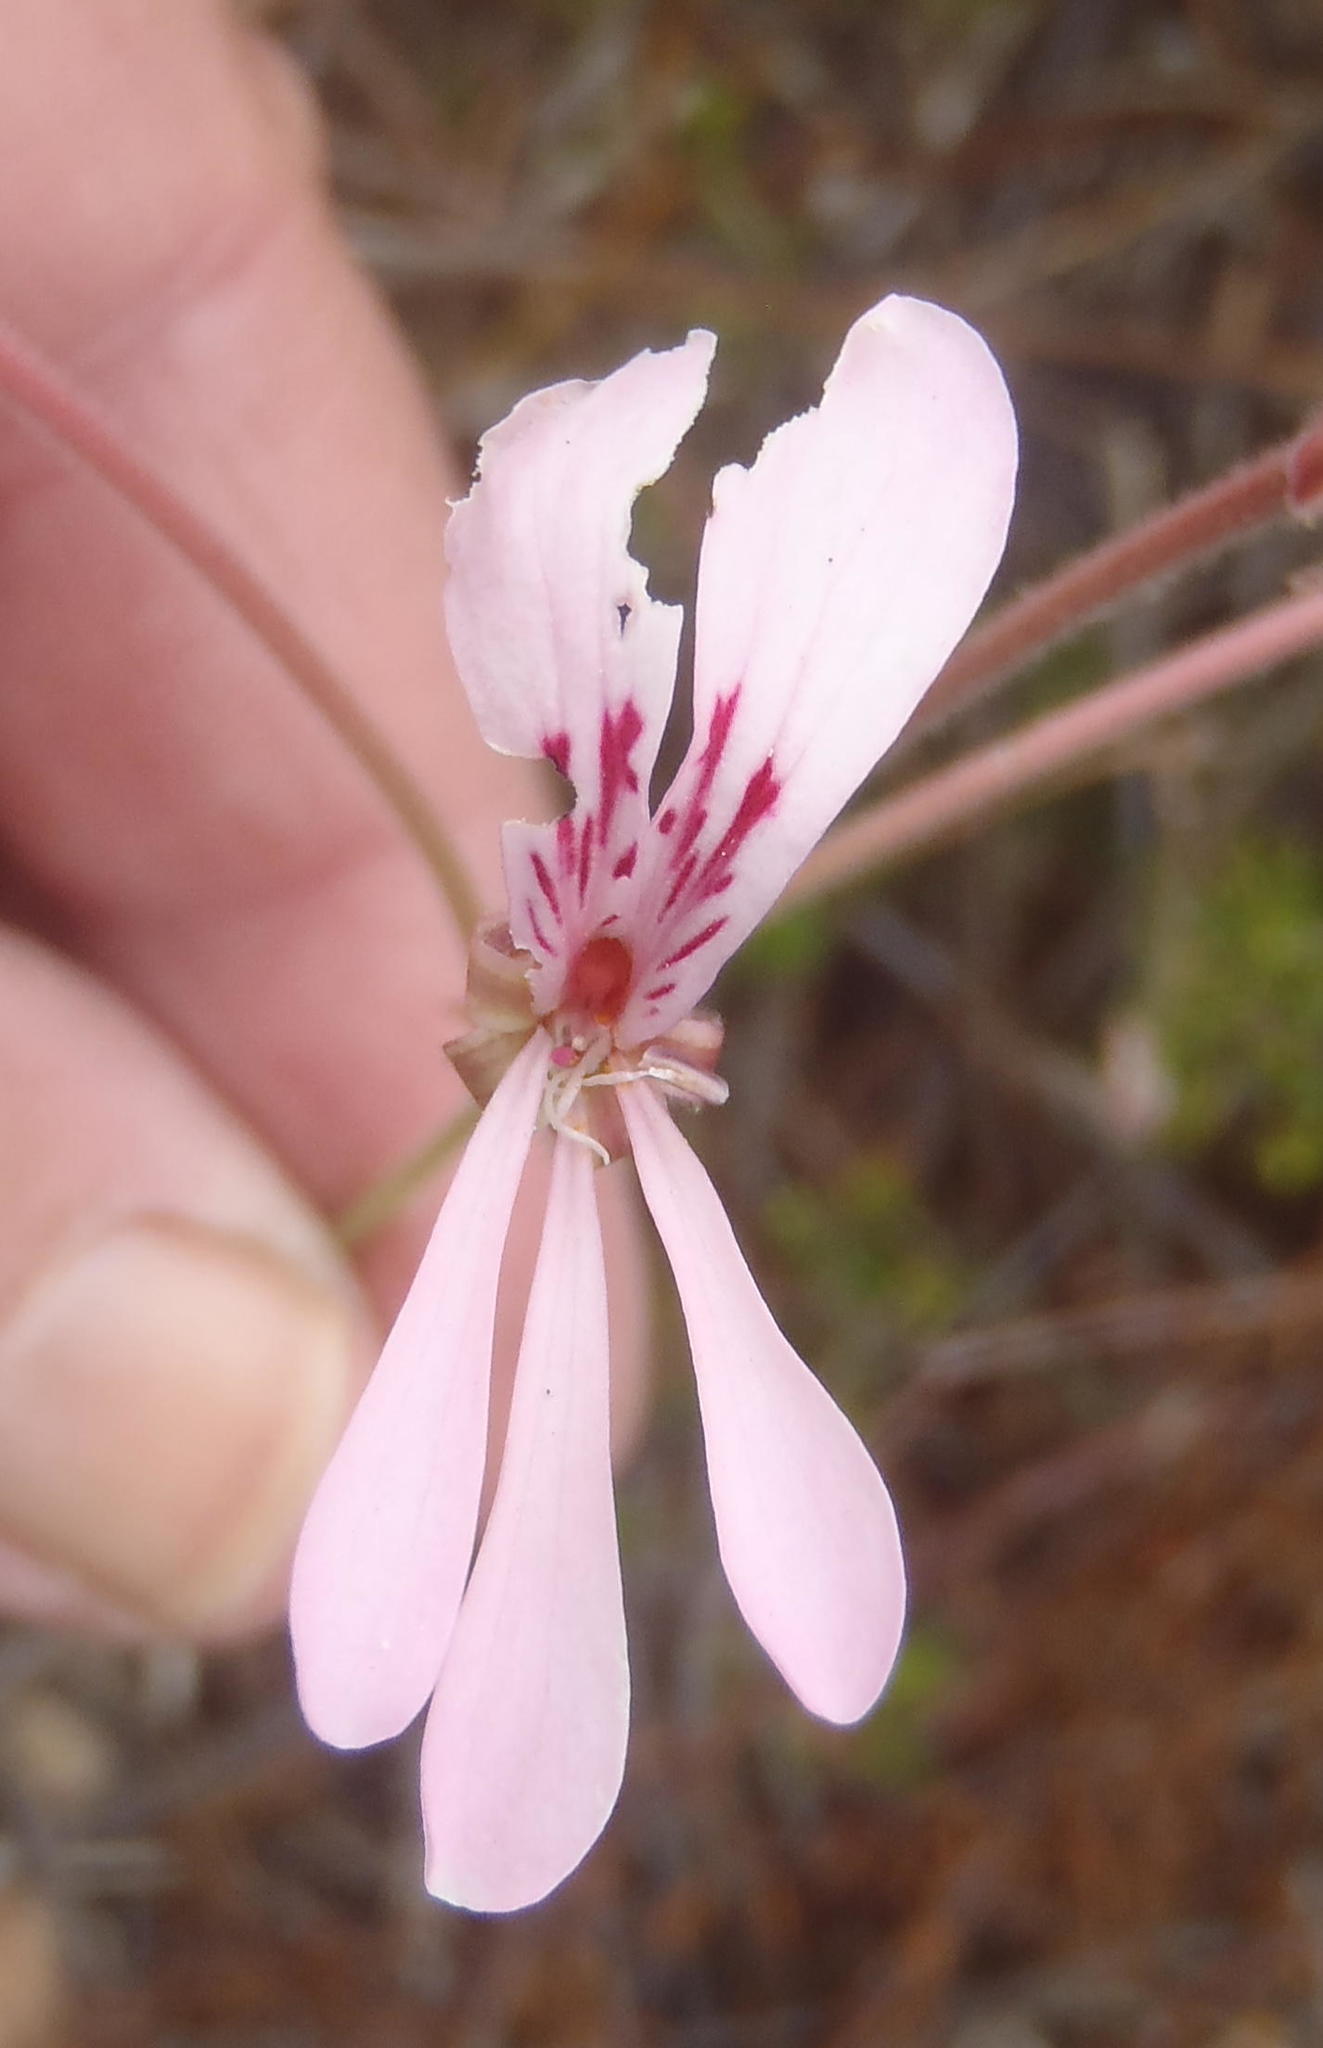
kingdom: Plantae
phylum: Tracheophyta
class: Magnoliopsida
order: Geraniales
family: Geraniaceae
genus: Pelargonium
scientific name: Pelargonium pinnatum
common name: Pinnated pelargonium
